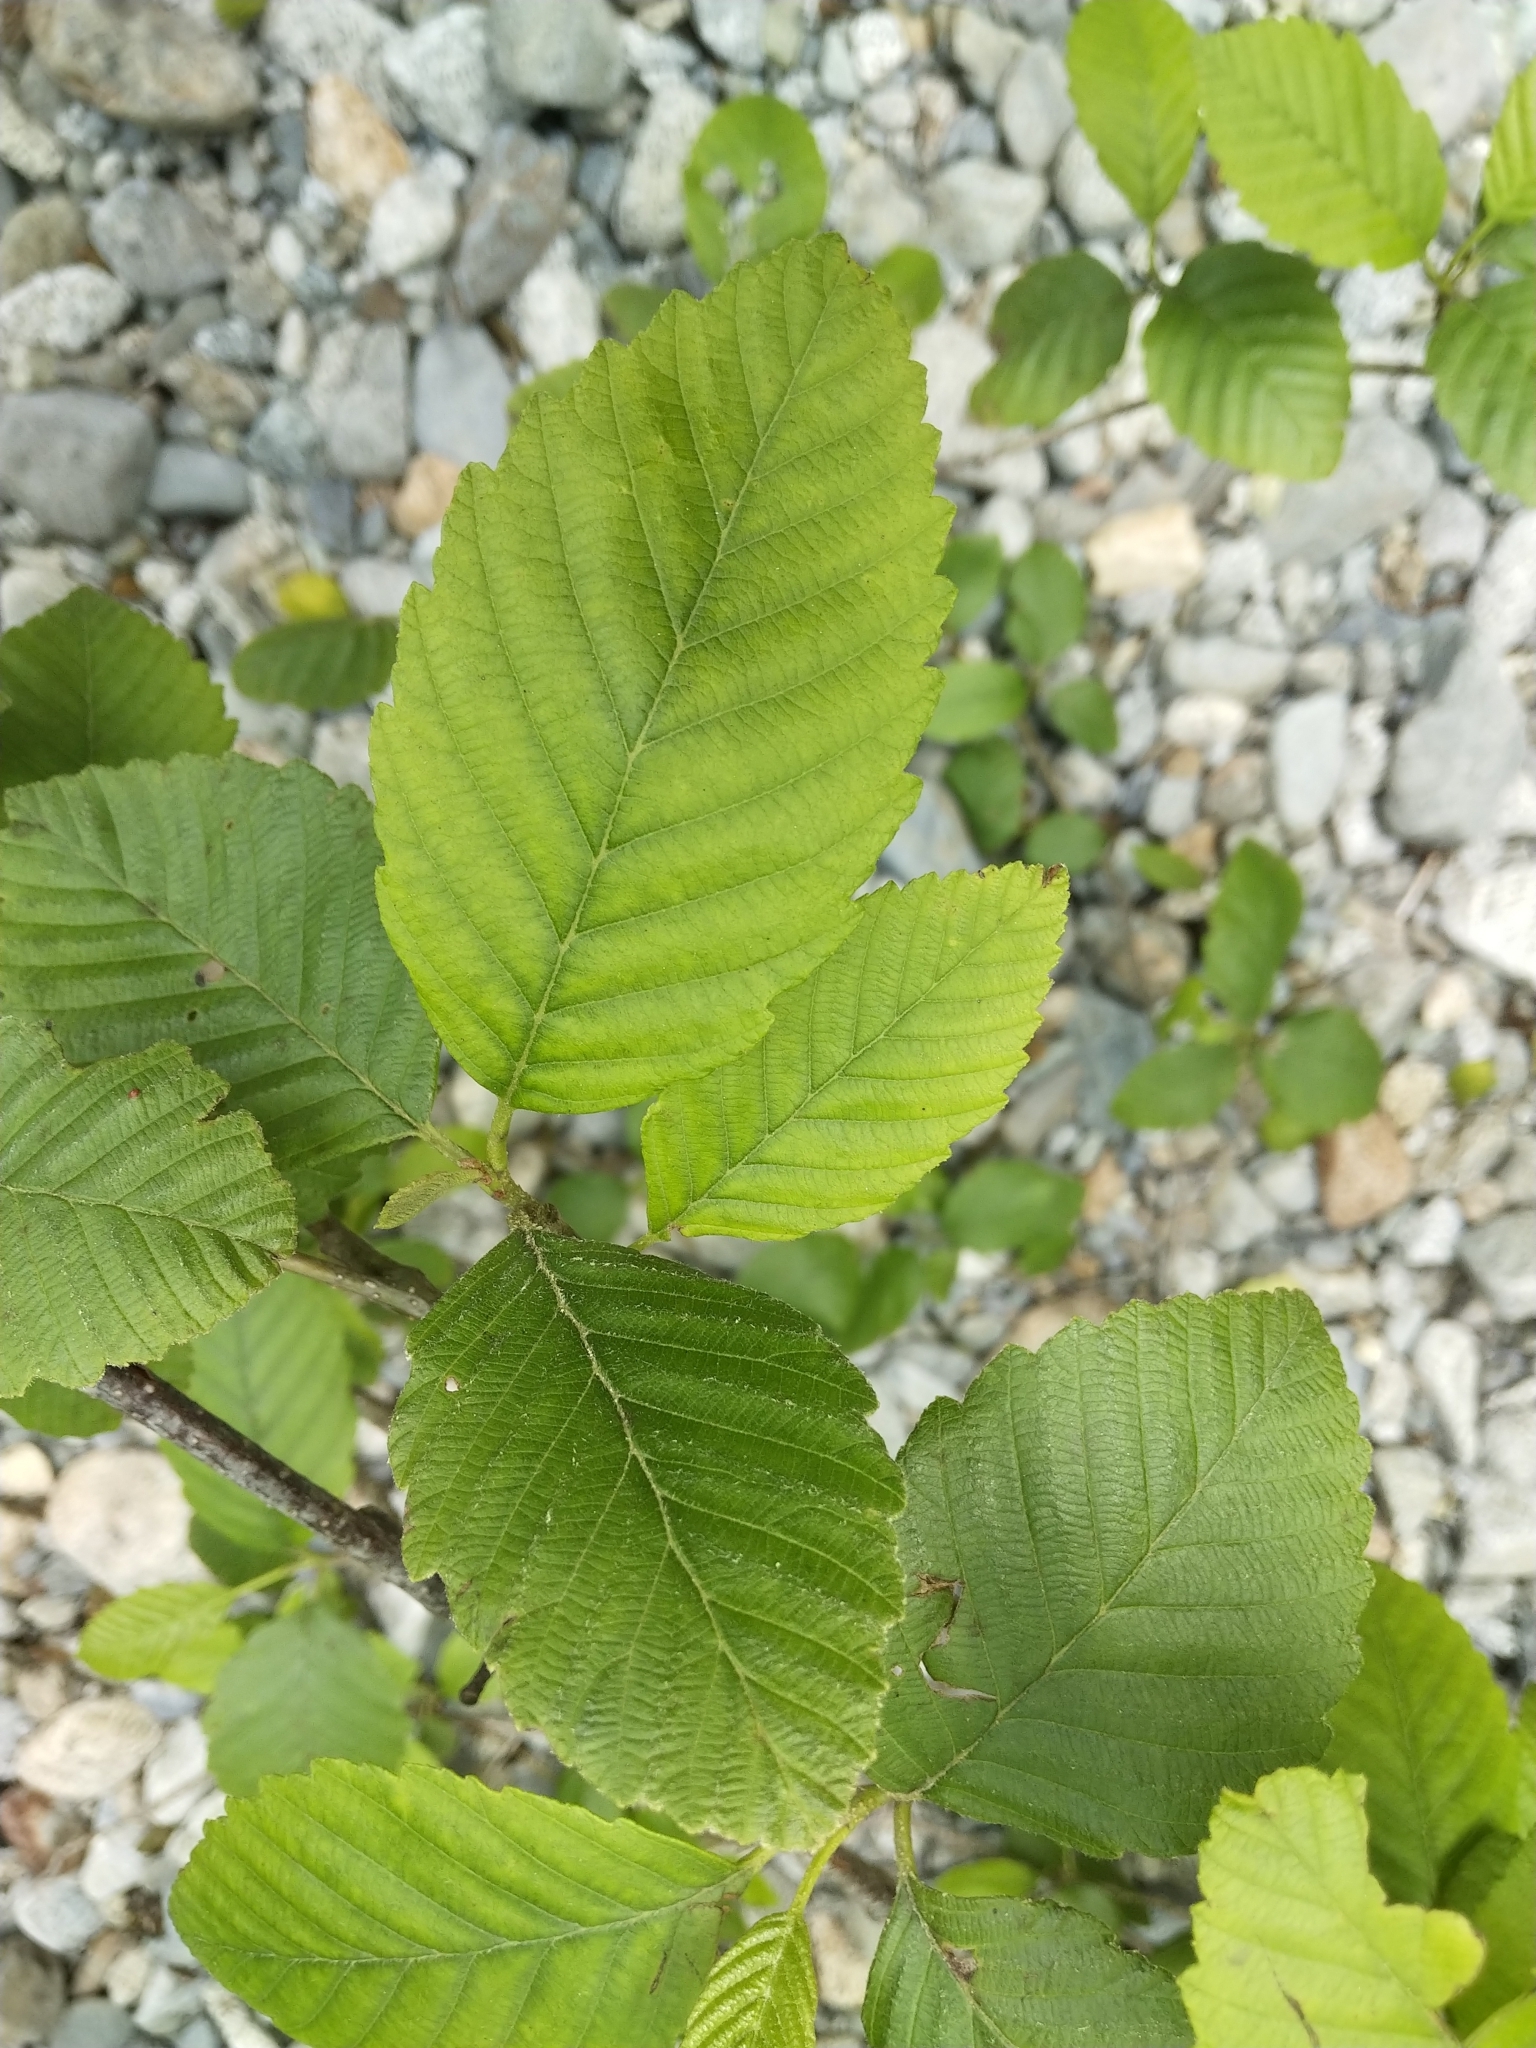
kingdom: Plantae
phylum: Tracheophyta
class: Magnoliopsida
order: Fagales
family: Betulaceae
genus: Alnus
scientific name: Alnus rubra
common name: Red alder
